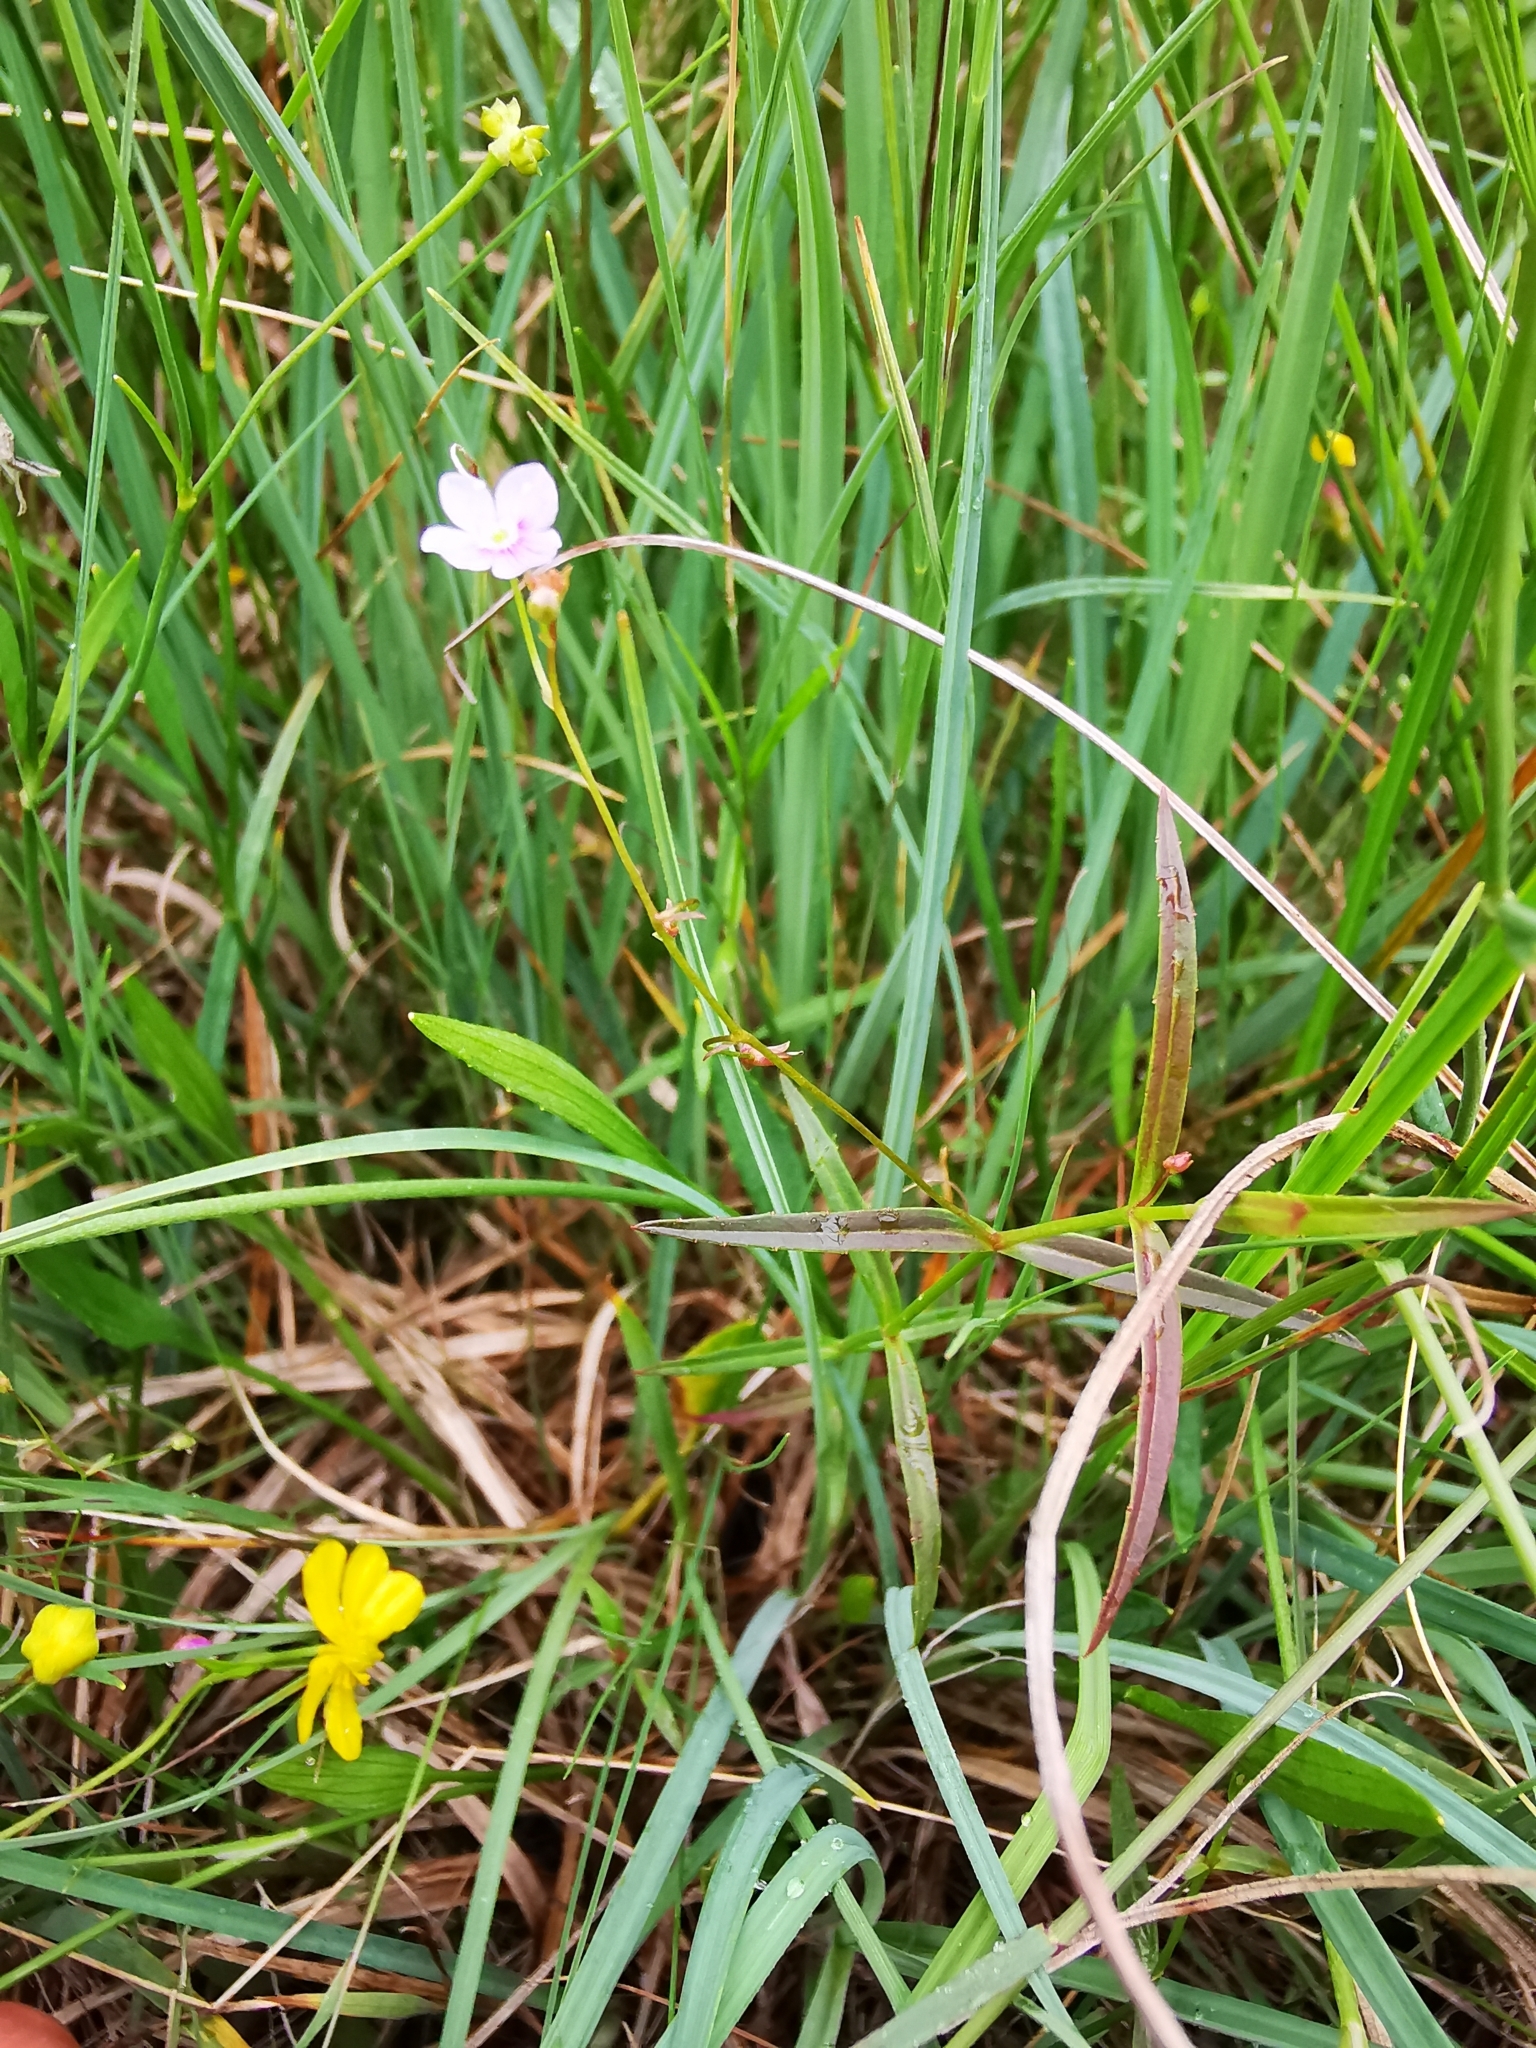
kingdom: Plantae
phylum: Tracheophyta
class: Magnoliopsida
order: Lamiales
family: Plantaginaceae
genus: Veronica
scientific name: Veronica scutellata
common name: Marsh speedwell
